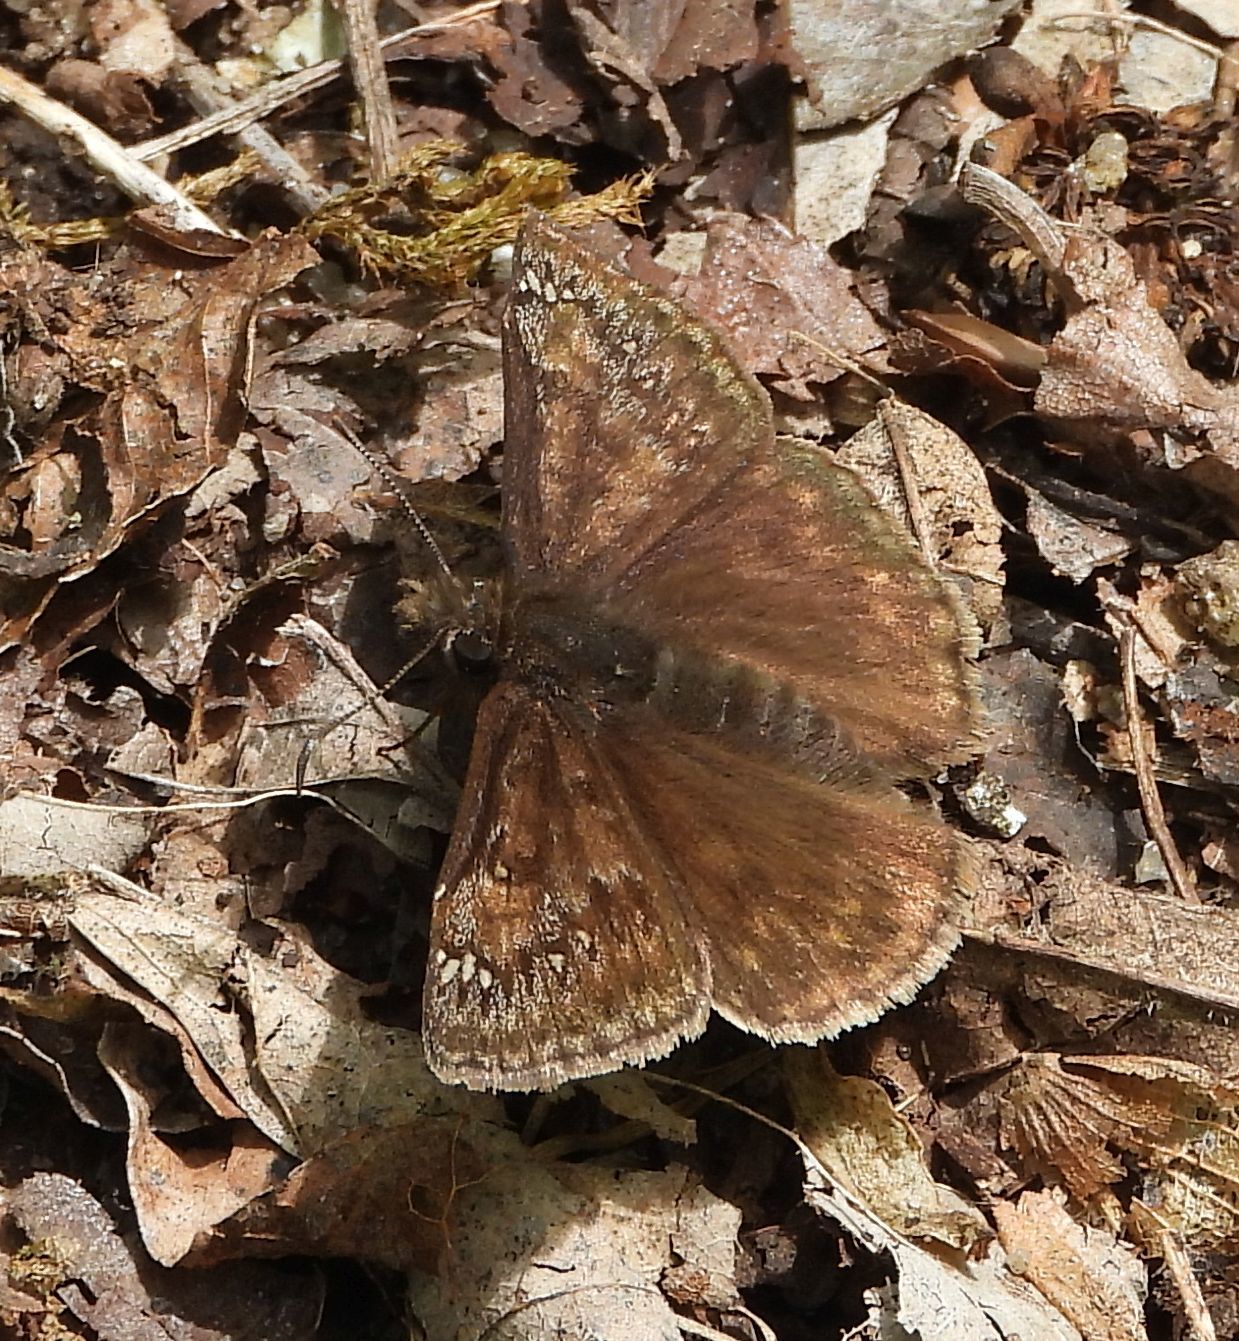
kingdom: Animalia
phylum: Arthropoda
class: Insecta
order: Lepidoptera
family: Hesperiidae
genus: Erynnis
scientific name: Erynnis juvenalis
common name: Juvenal's duskywing
